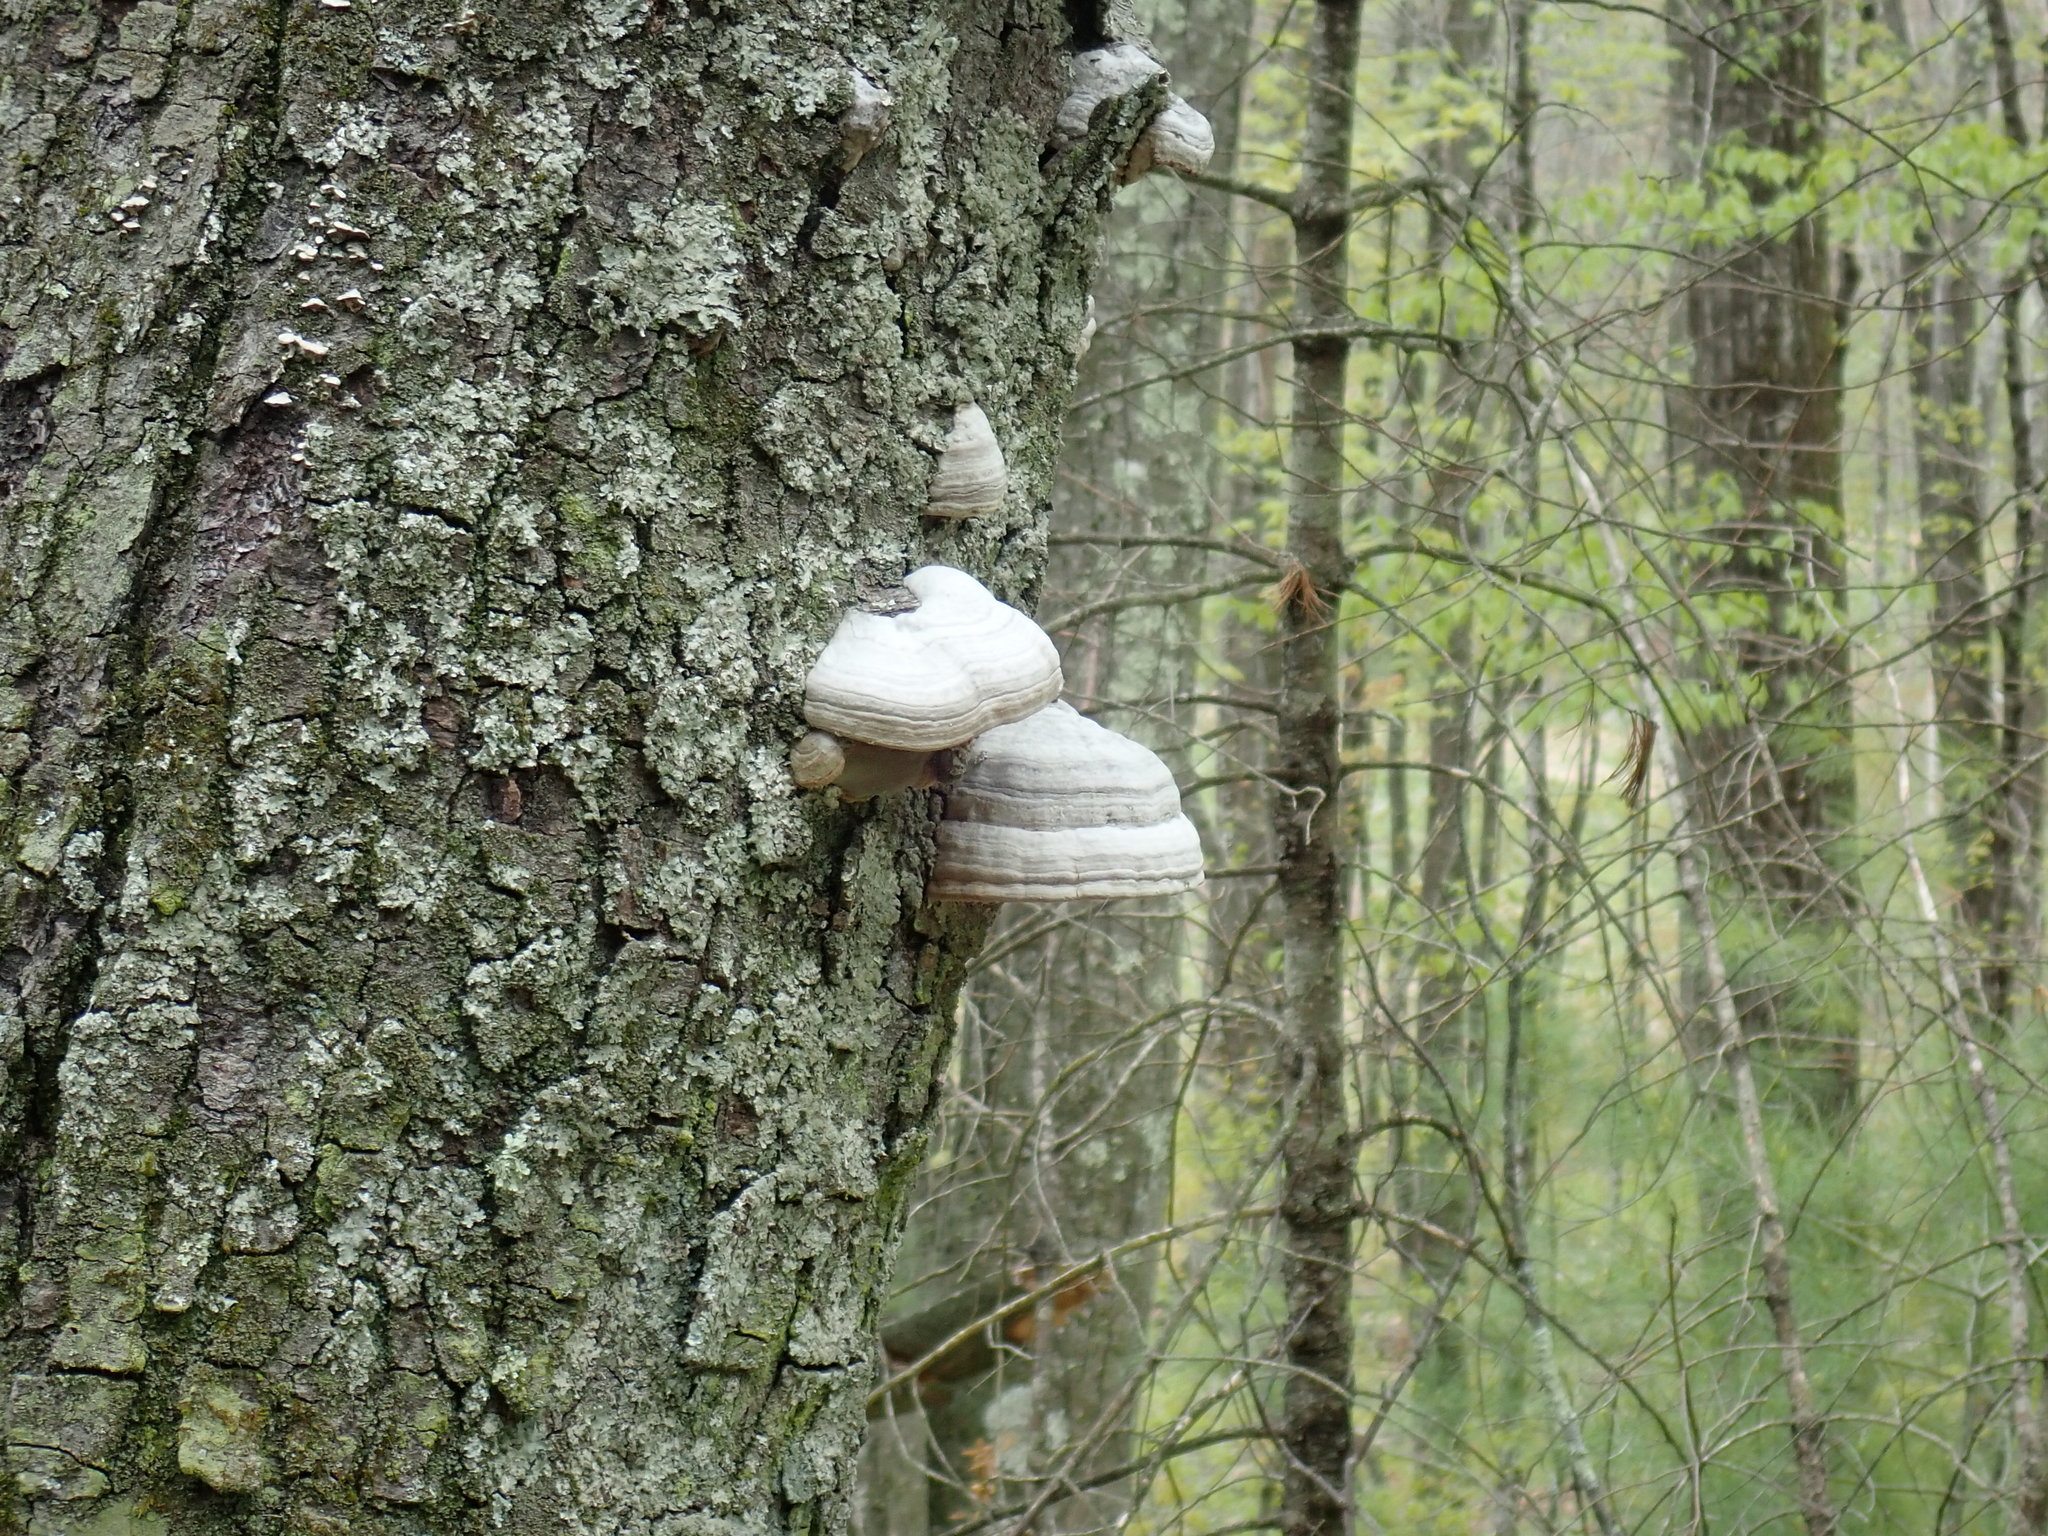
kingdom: Fungi
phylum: Basidiomycota
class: Agaricomycetes
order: Polyporales
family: Polyporaceae
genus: Fomes
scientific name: Fomes fomentarius
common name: Hoof fungus
